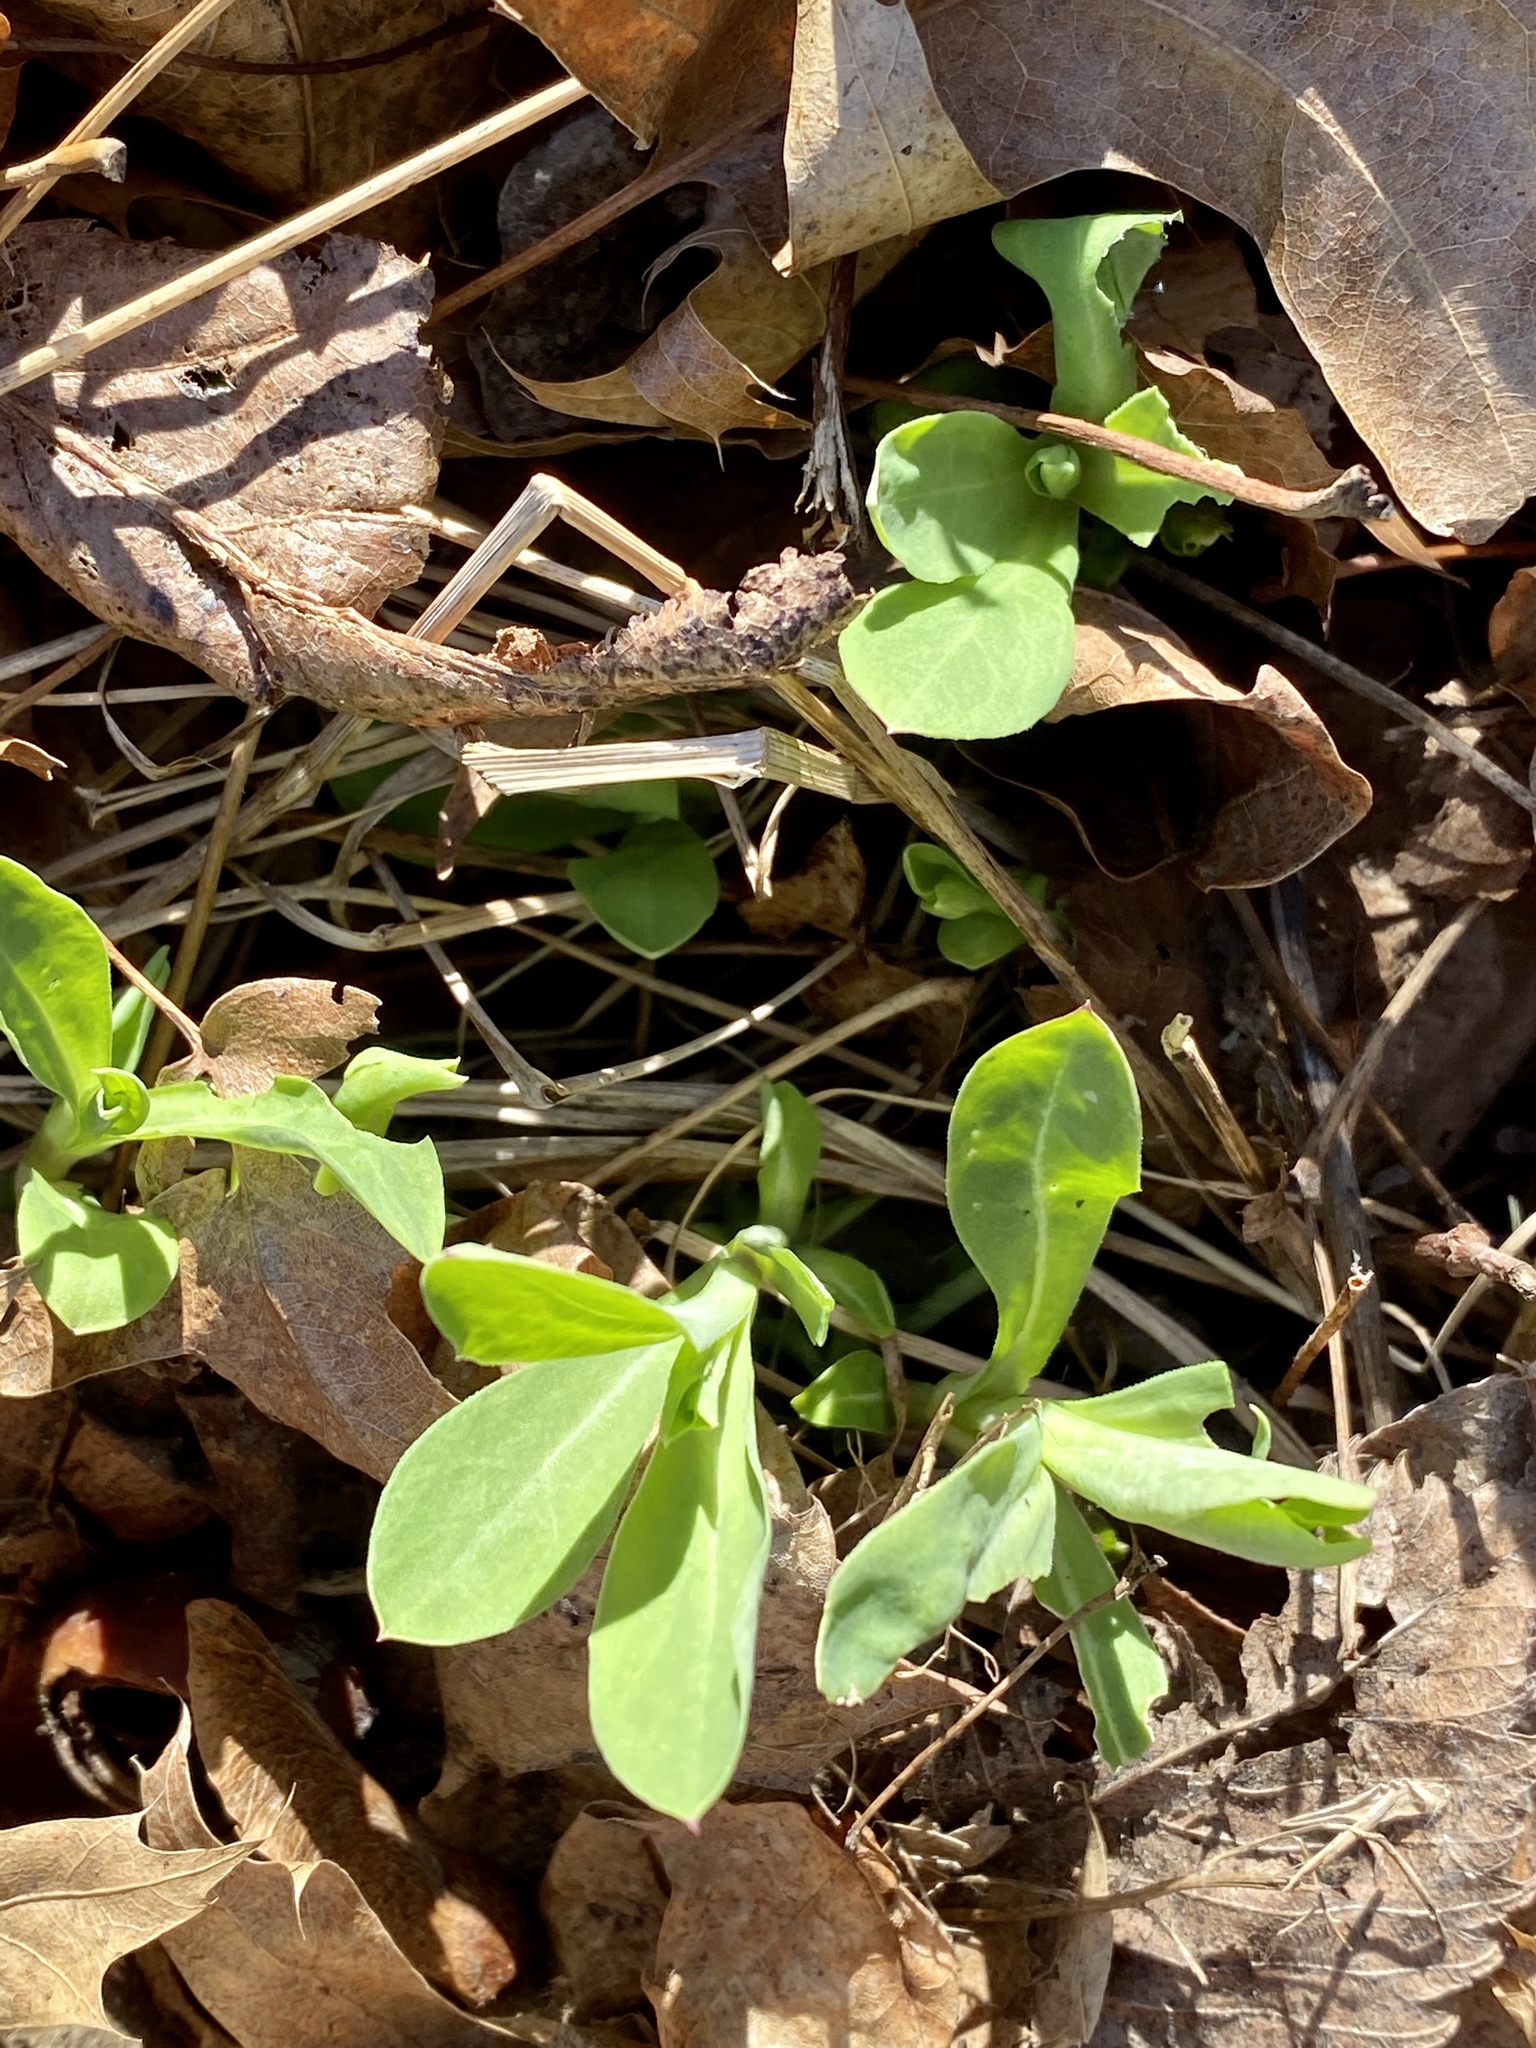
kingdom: Plantae
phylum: Tracheophyta
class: Magnoliopsida
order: Caryophyllales
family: Caryophyllaceae
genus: Silene
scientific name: Silene vulgaris
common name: Bladder campion
